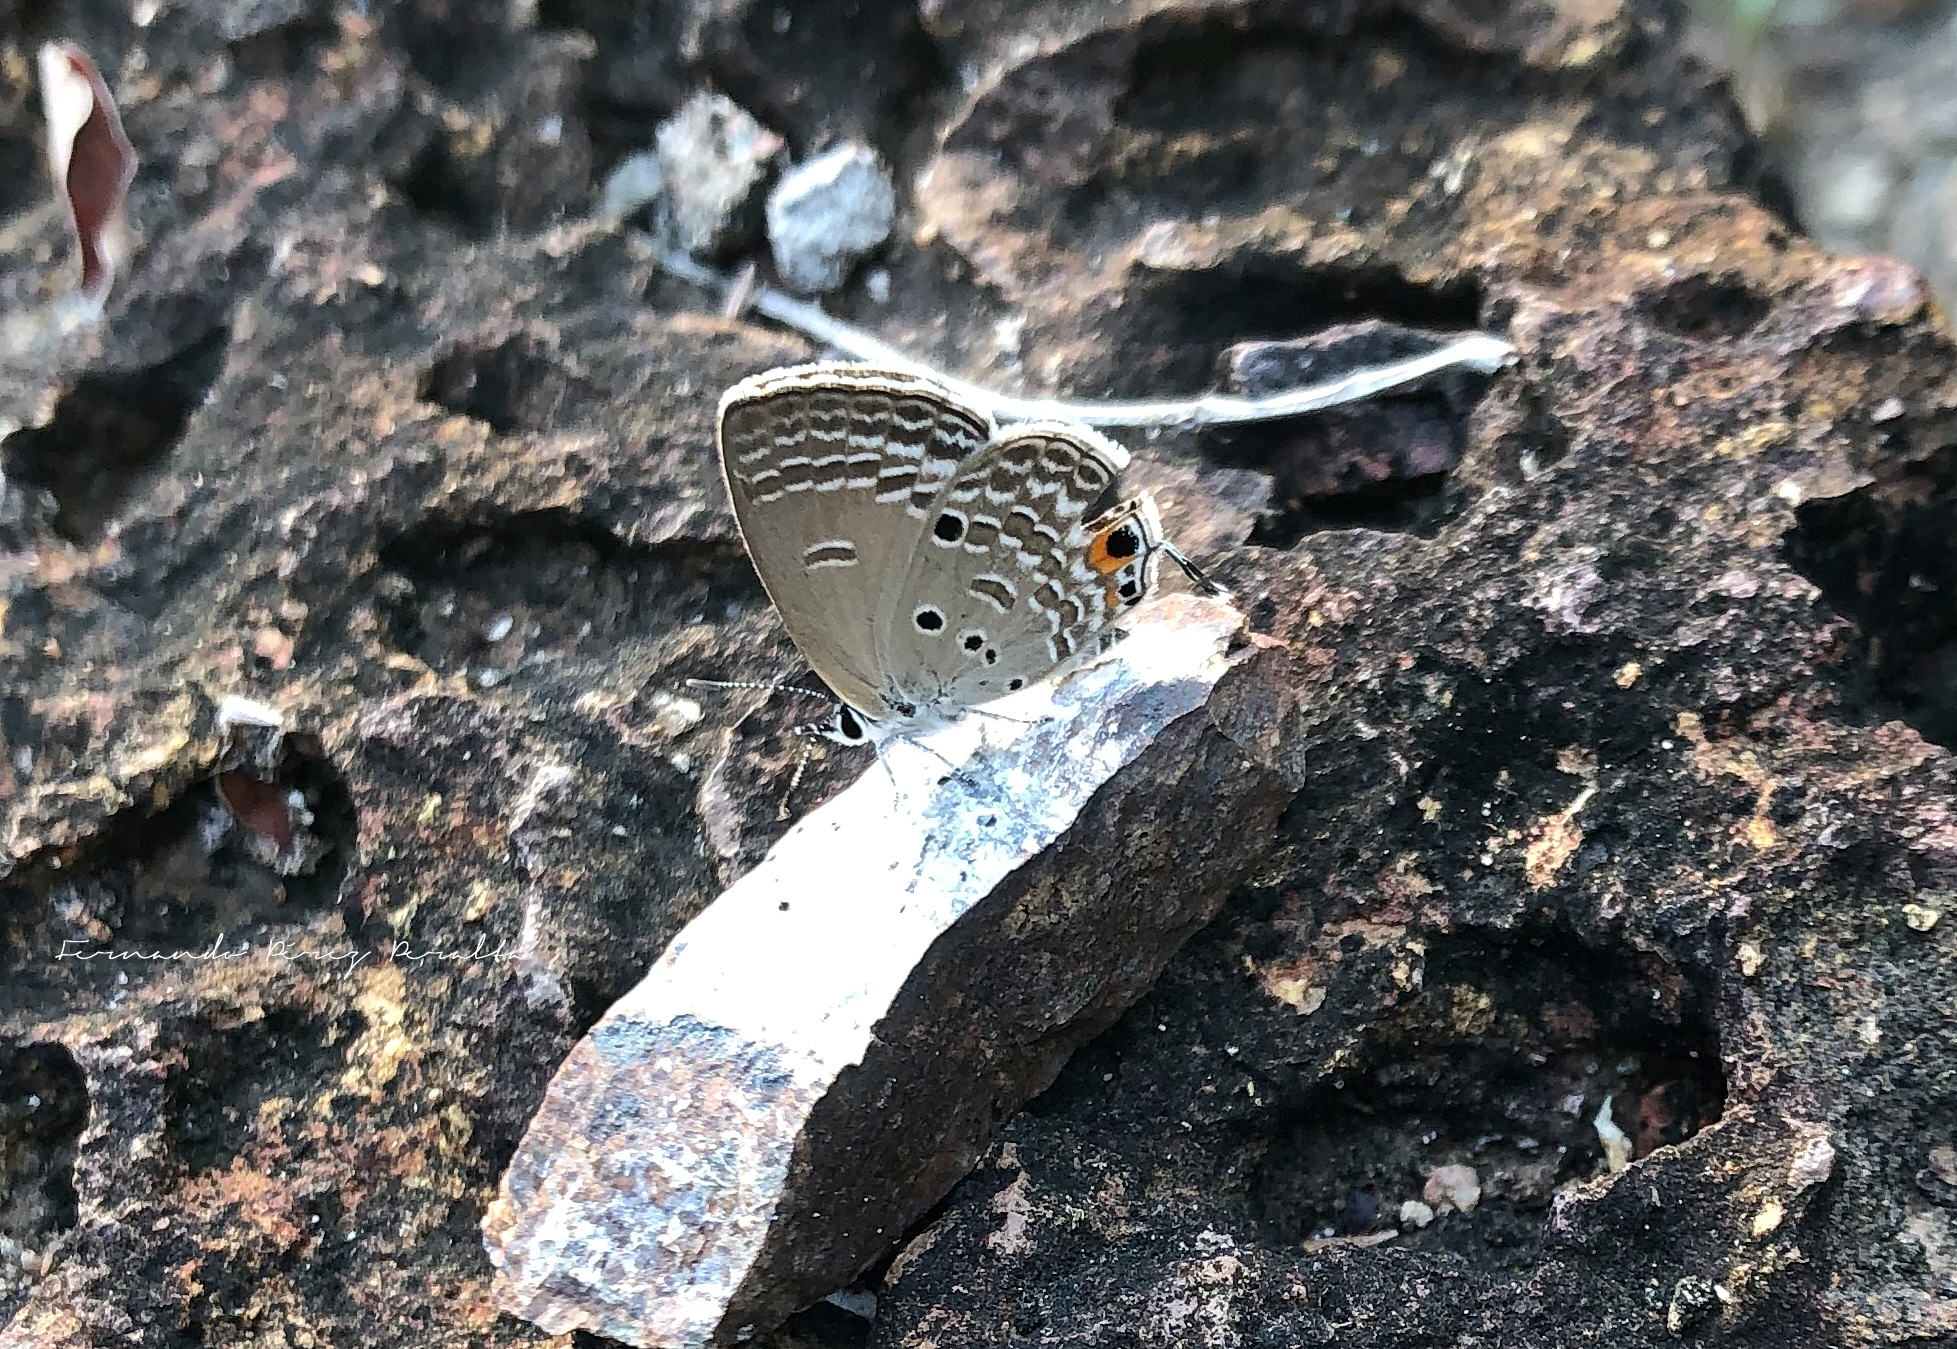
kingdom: Animalia
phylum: Arthropoda
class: Insecta
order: Lepidoptera
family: Lycaenidae
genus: Luthrodes
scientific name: Luthrodes pandava
